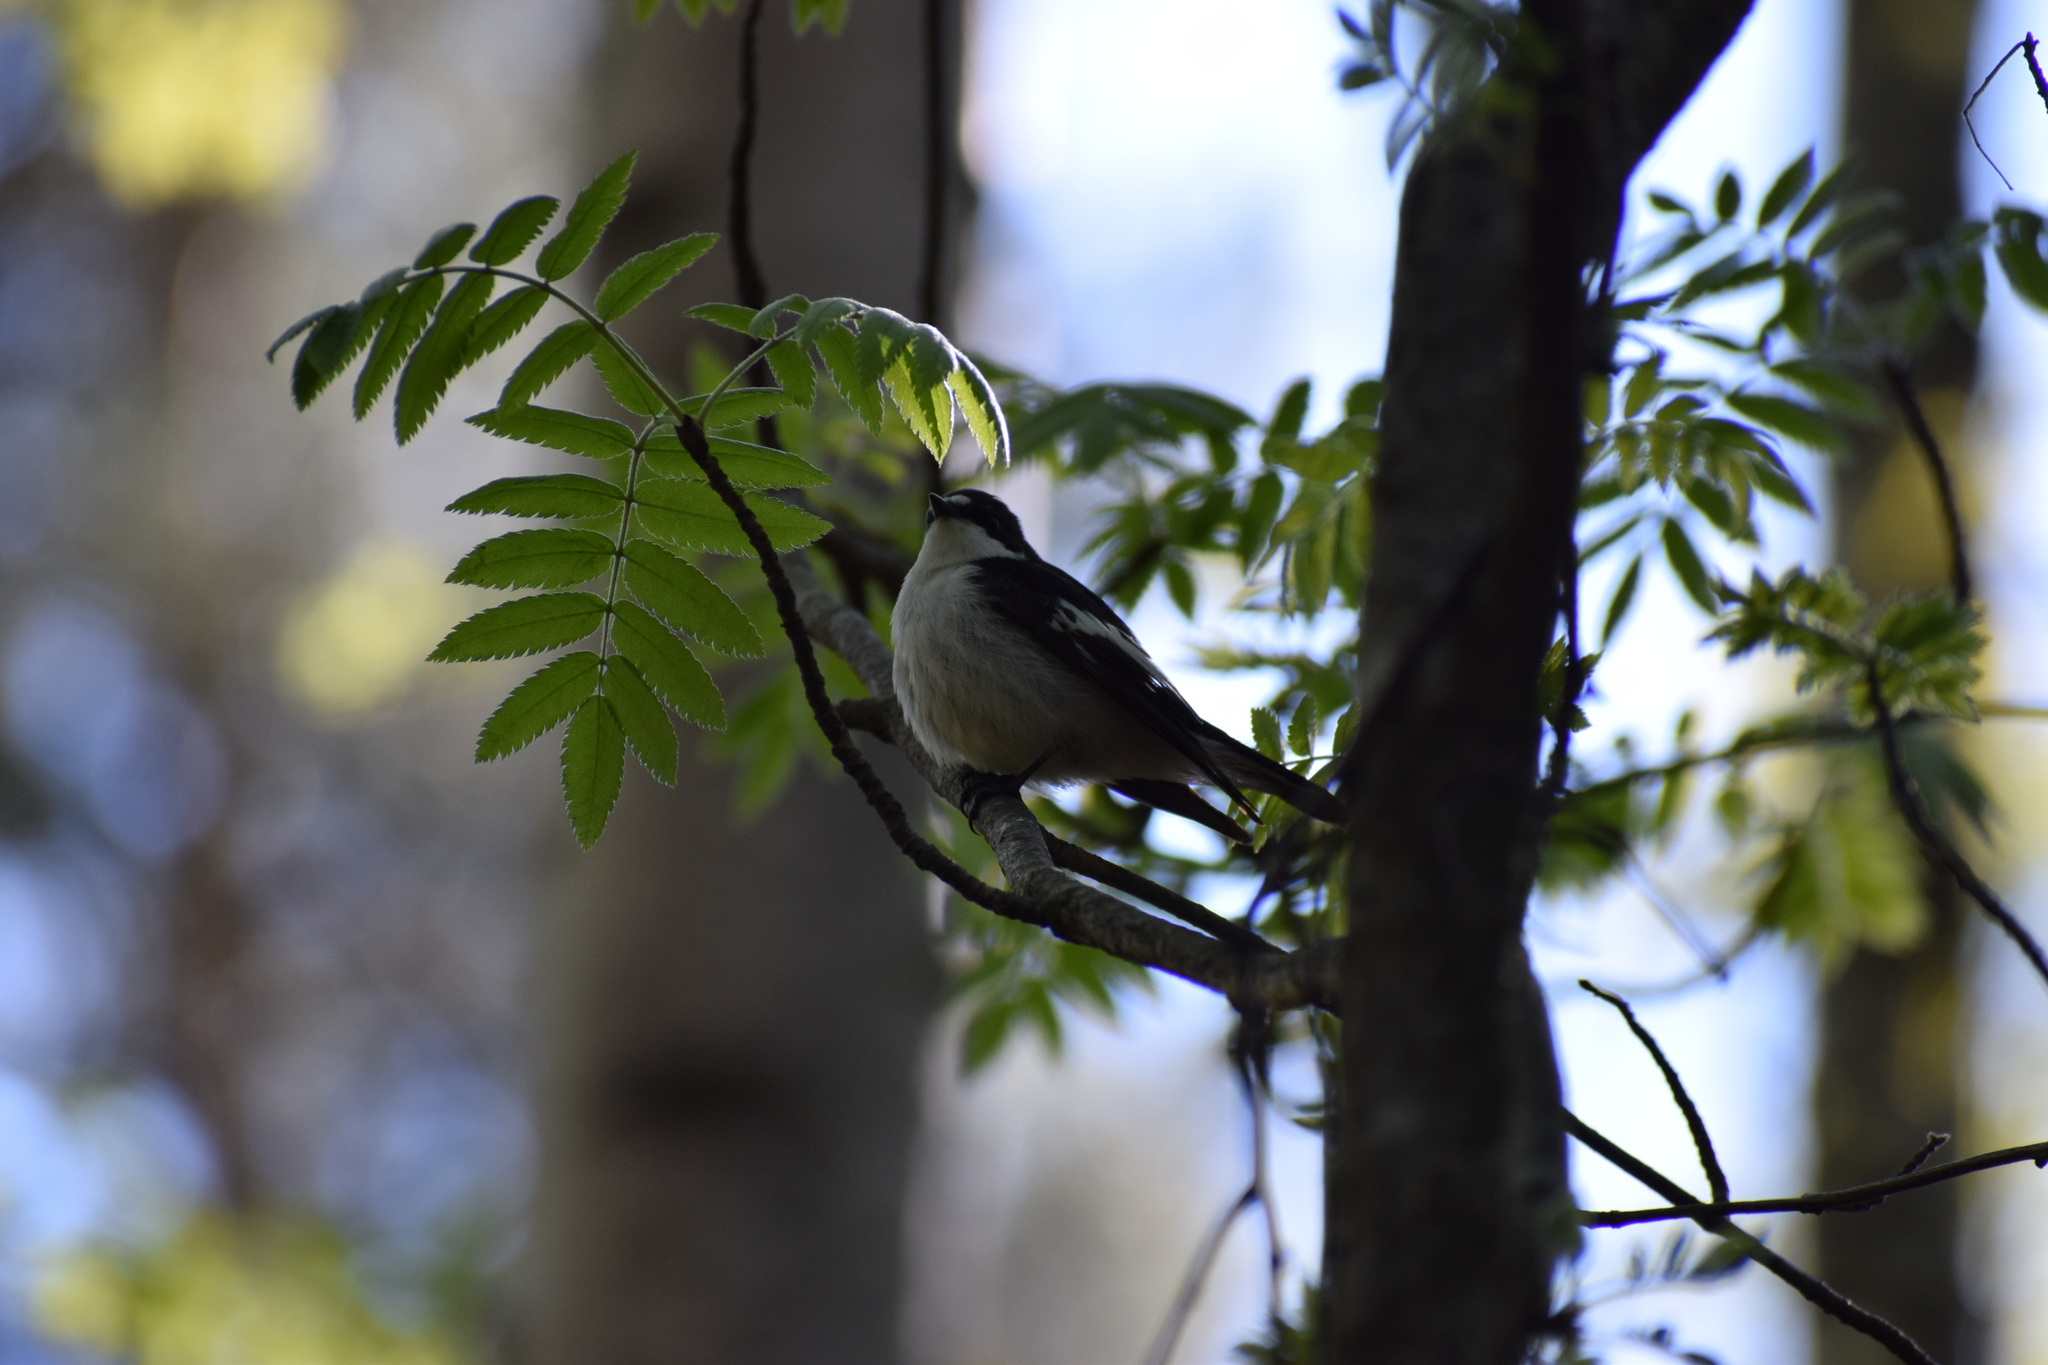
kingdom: Animalia
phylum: Chordata
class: Aves
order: Passeriformes
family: Muscicapidae
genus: Ficedula
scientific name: Ficedula hypoleuca
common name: European pied flycatcher
